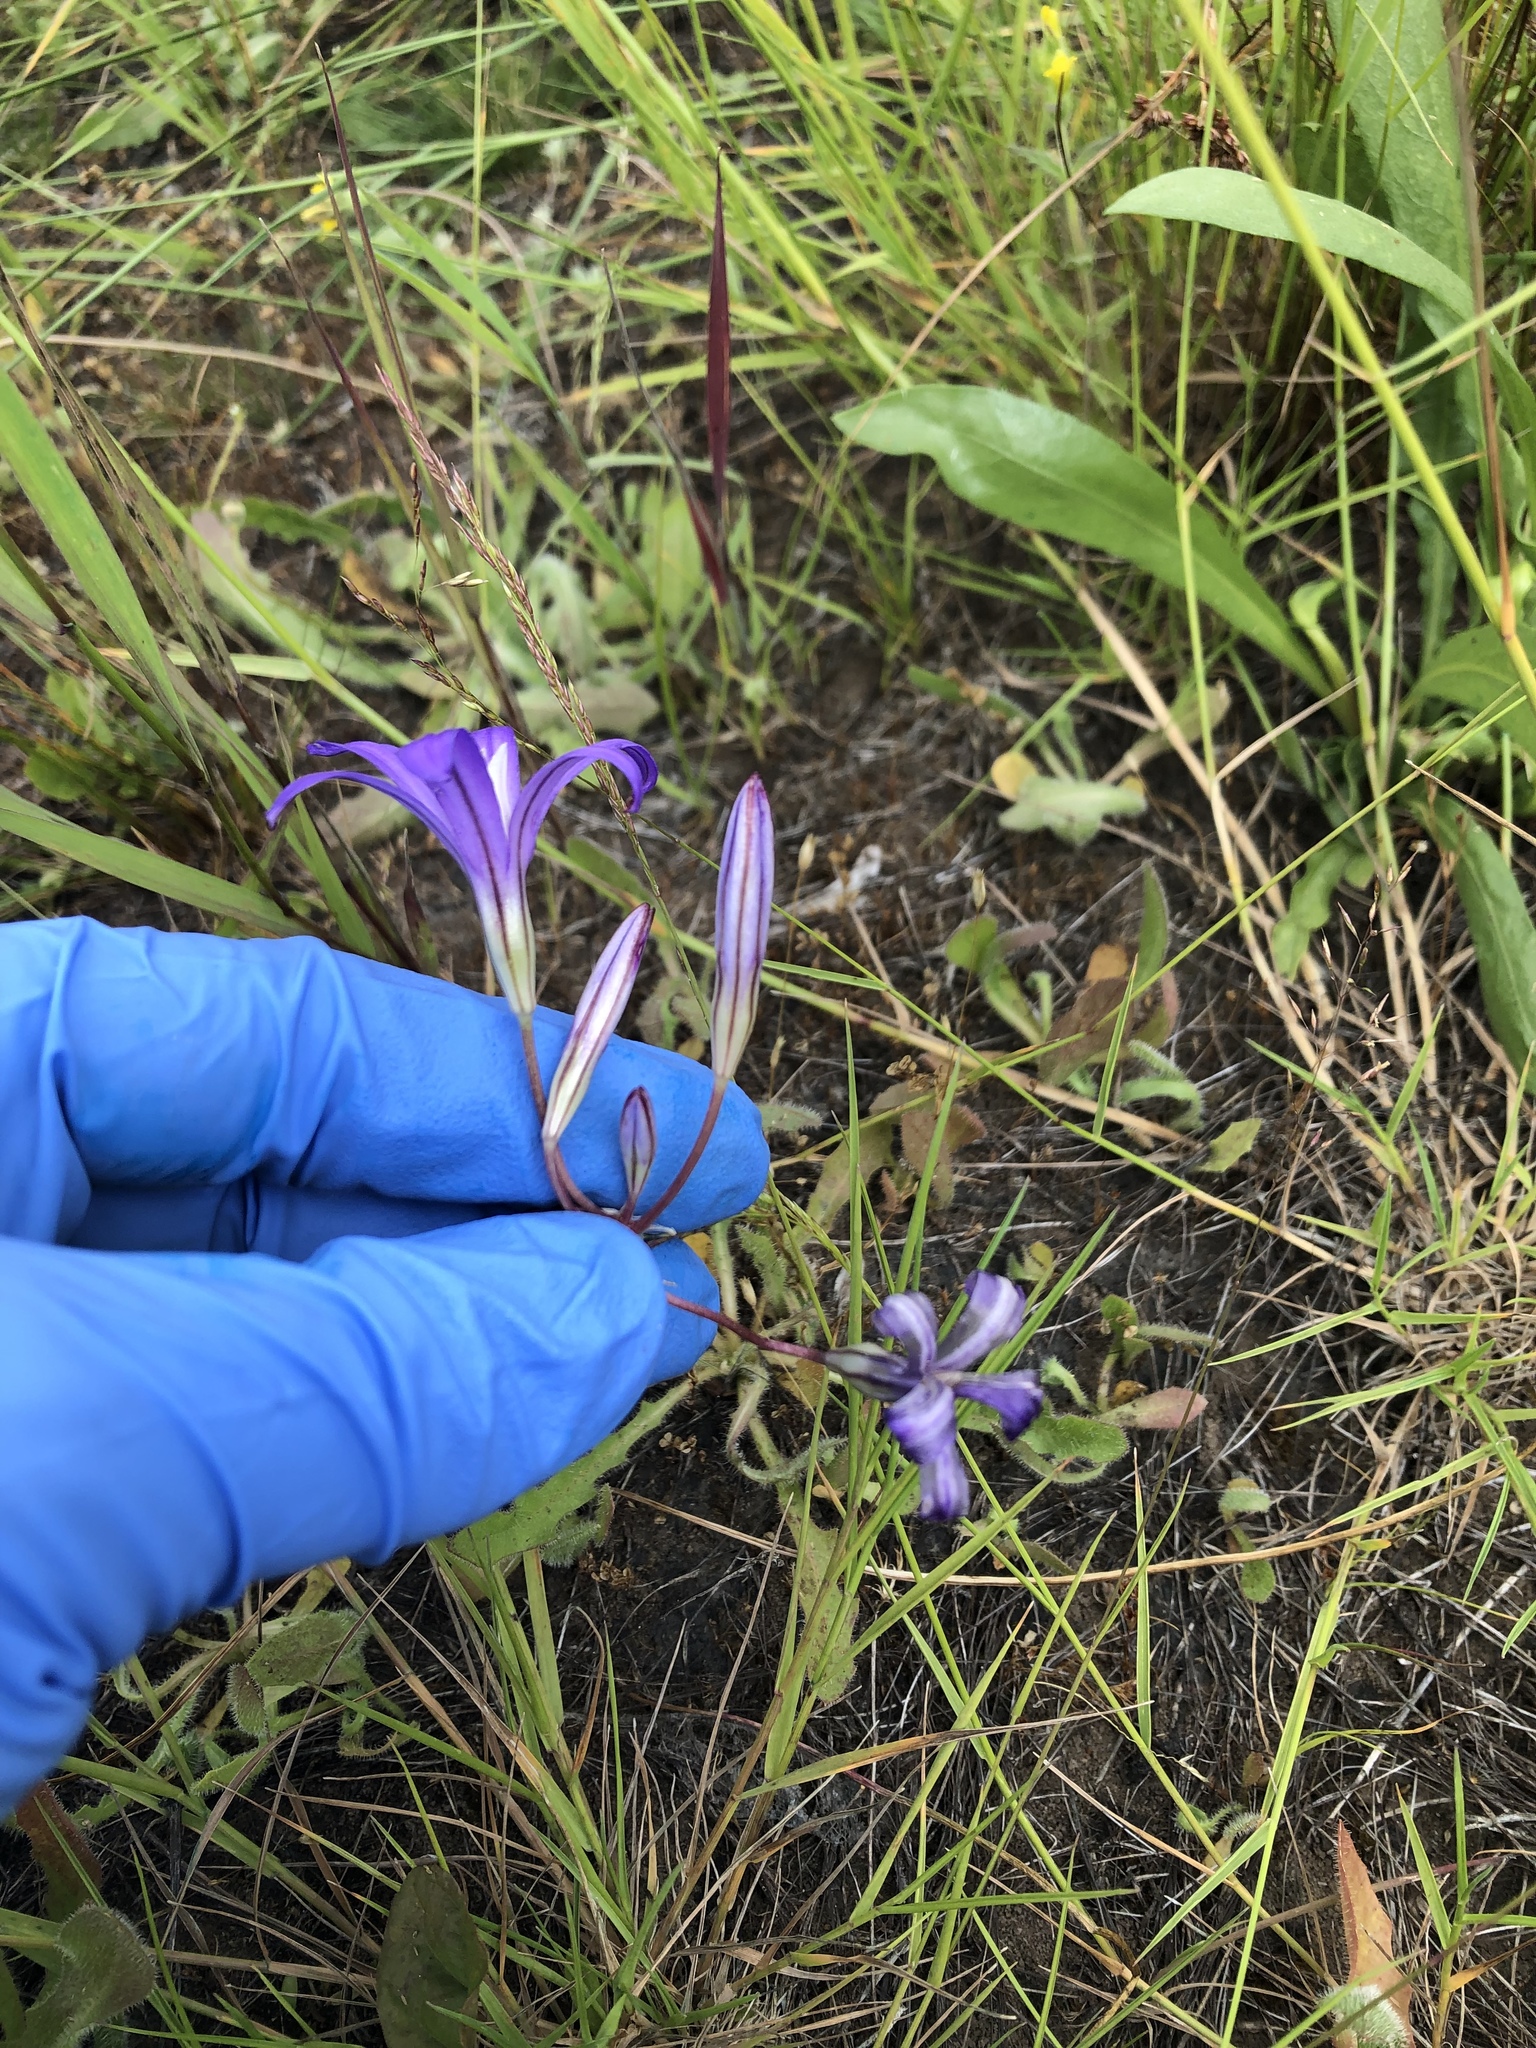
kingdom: Plantae
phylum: Tracheophyta
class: Liliopsida
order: Asparagales
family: Asparagaceae
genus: Brodiaea
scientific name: Brodiaea coronaria
